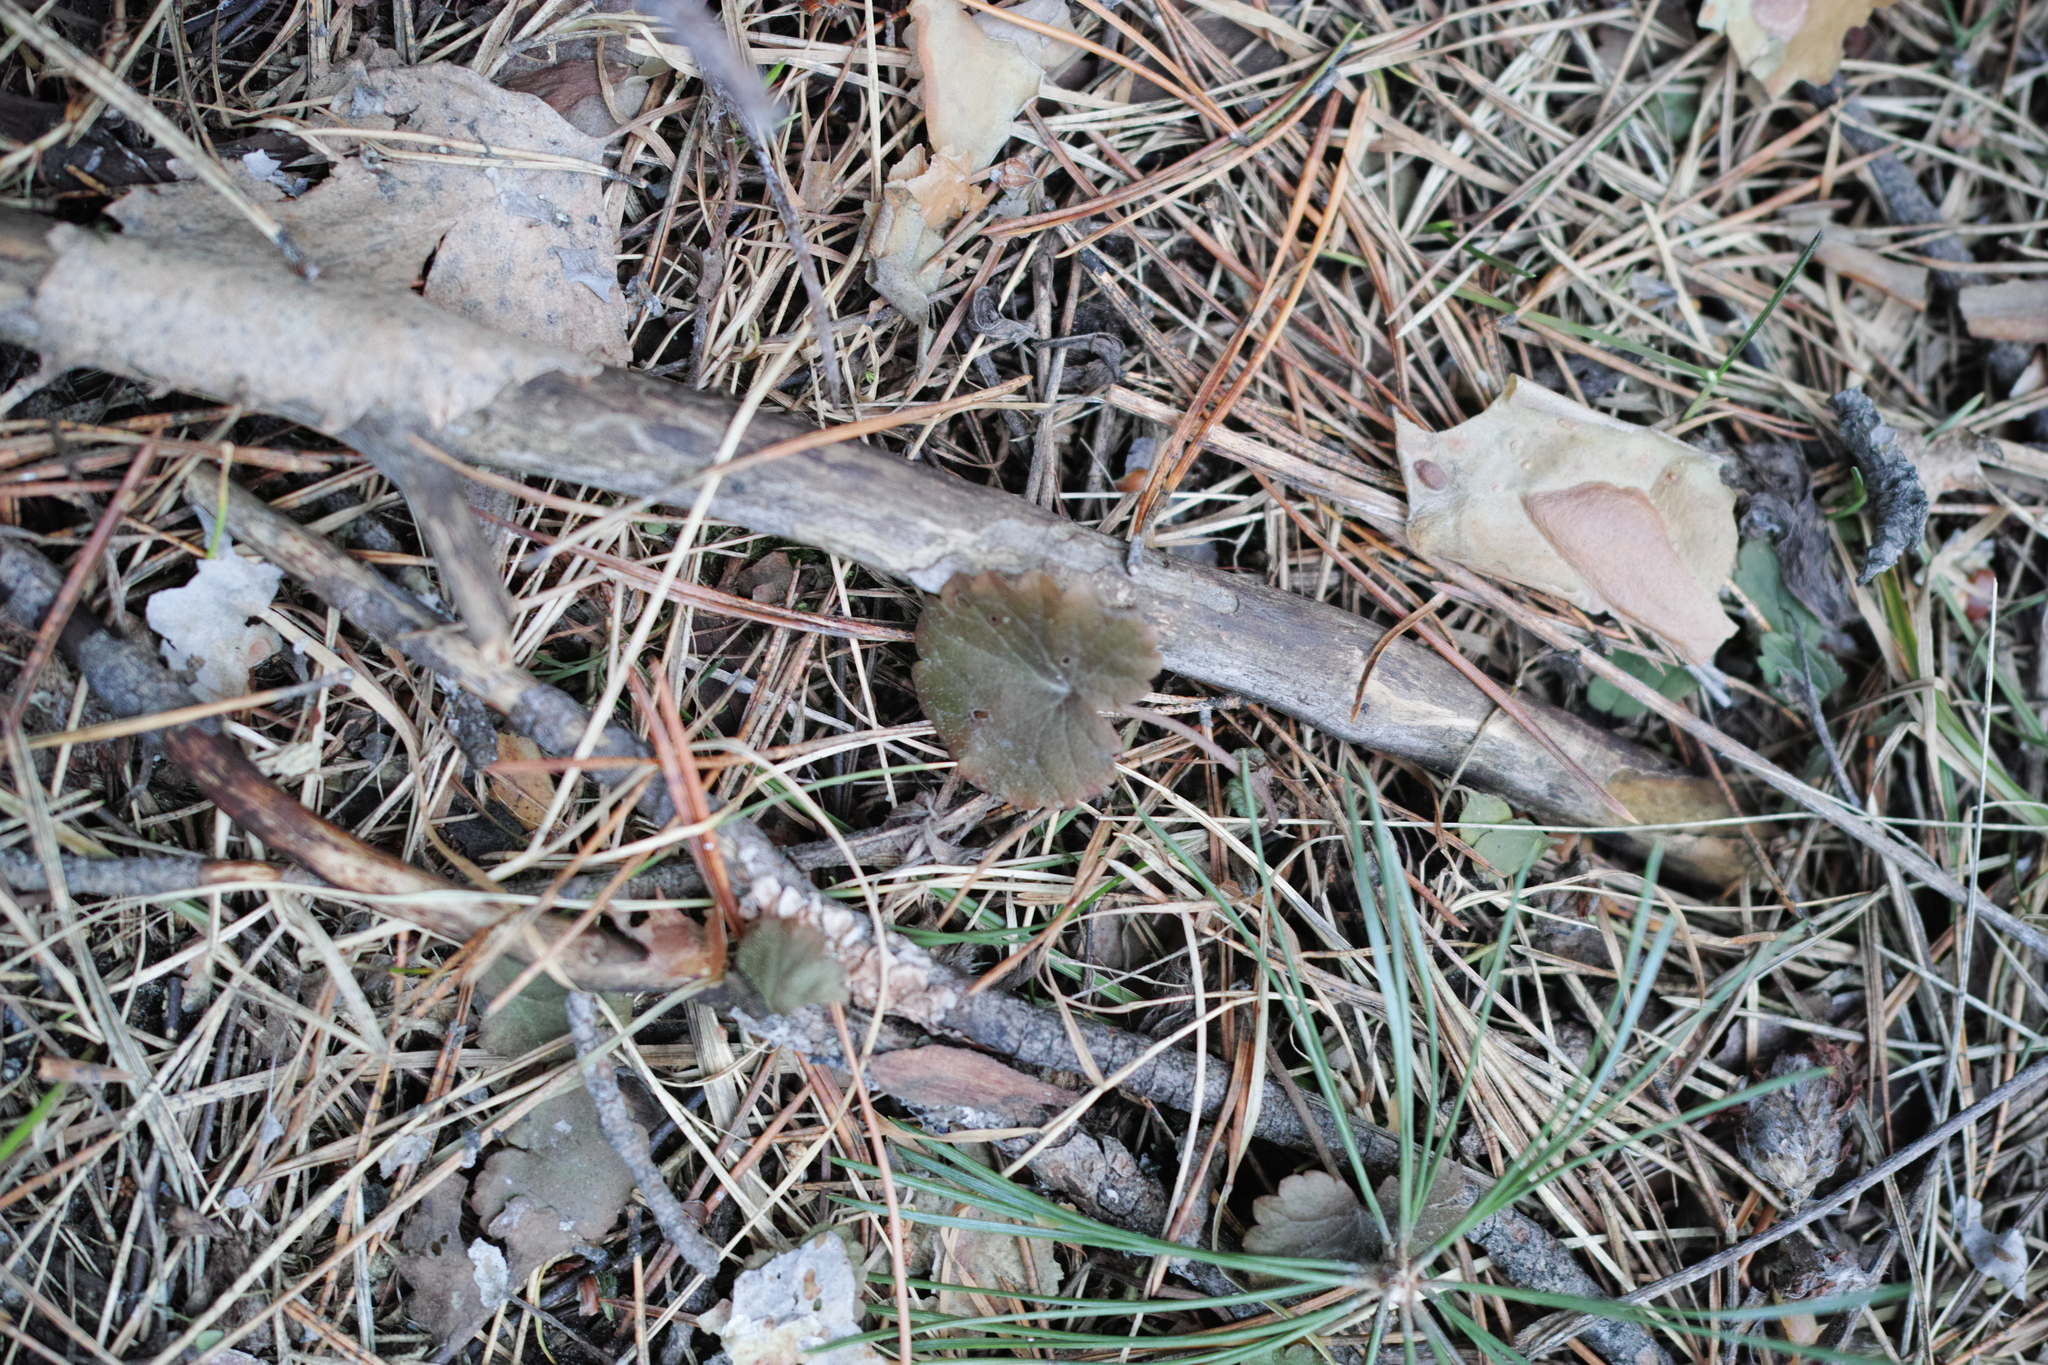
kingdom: Plantae
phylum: Tracheophyta
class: Magnoliopsida
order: Lamiales
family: Lamiaceae
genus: Glechoma
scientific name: Glechoma hederacea
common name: Ground ivy
